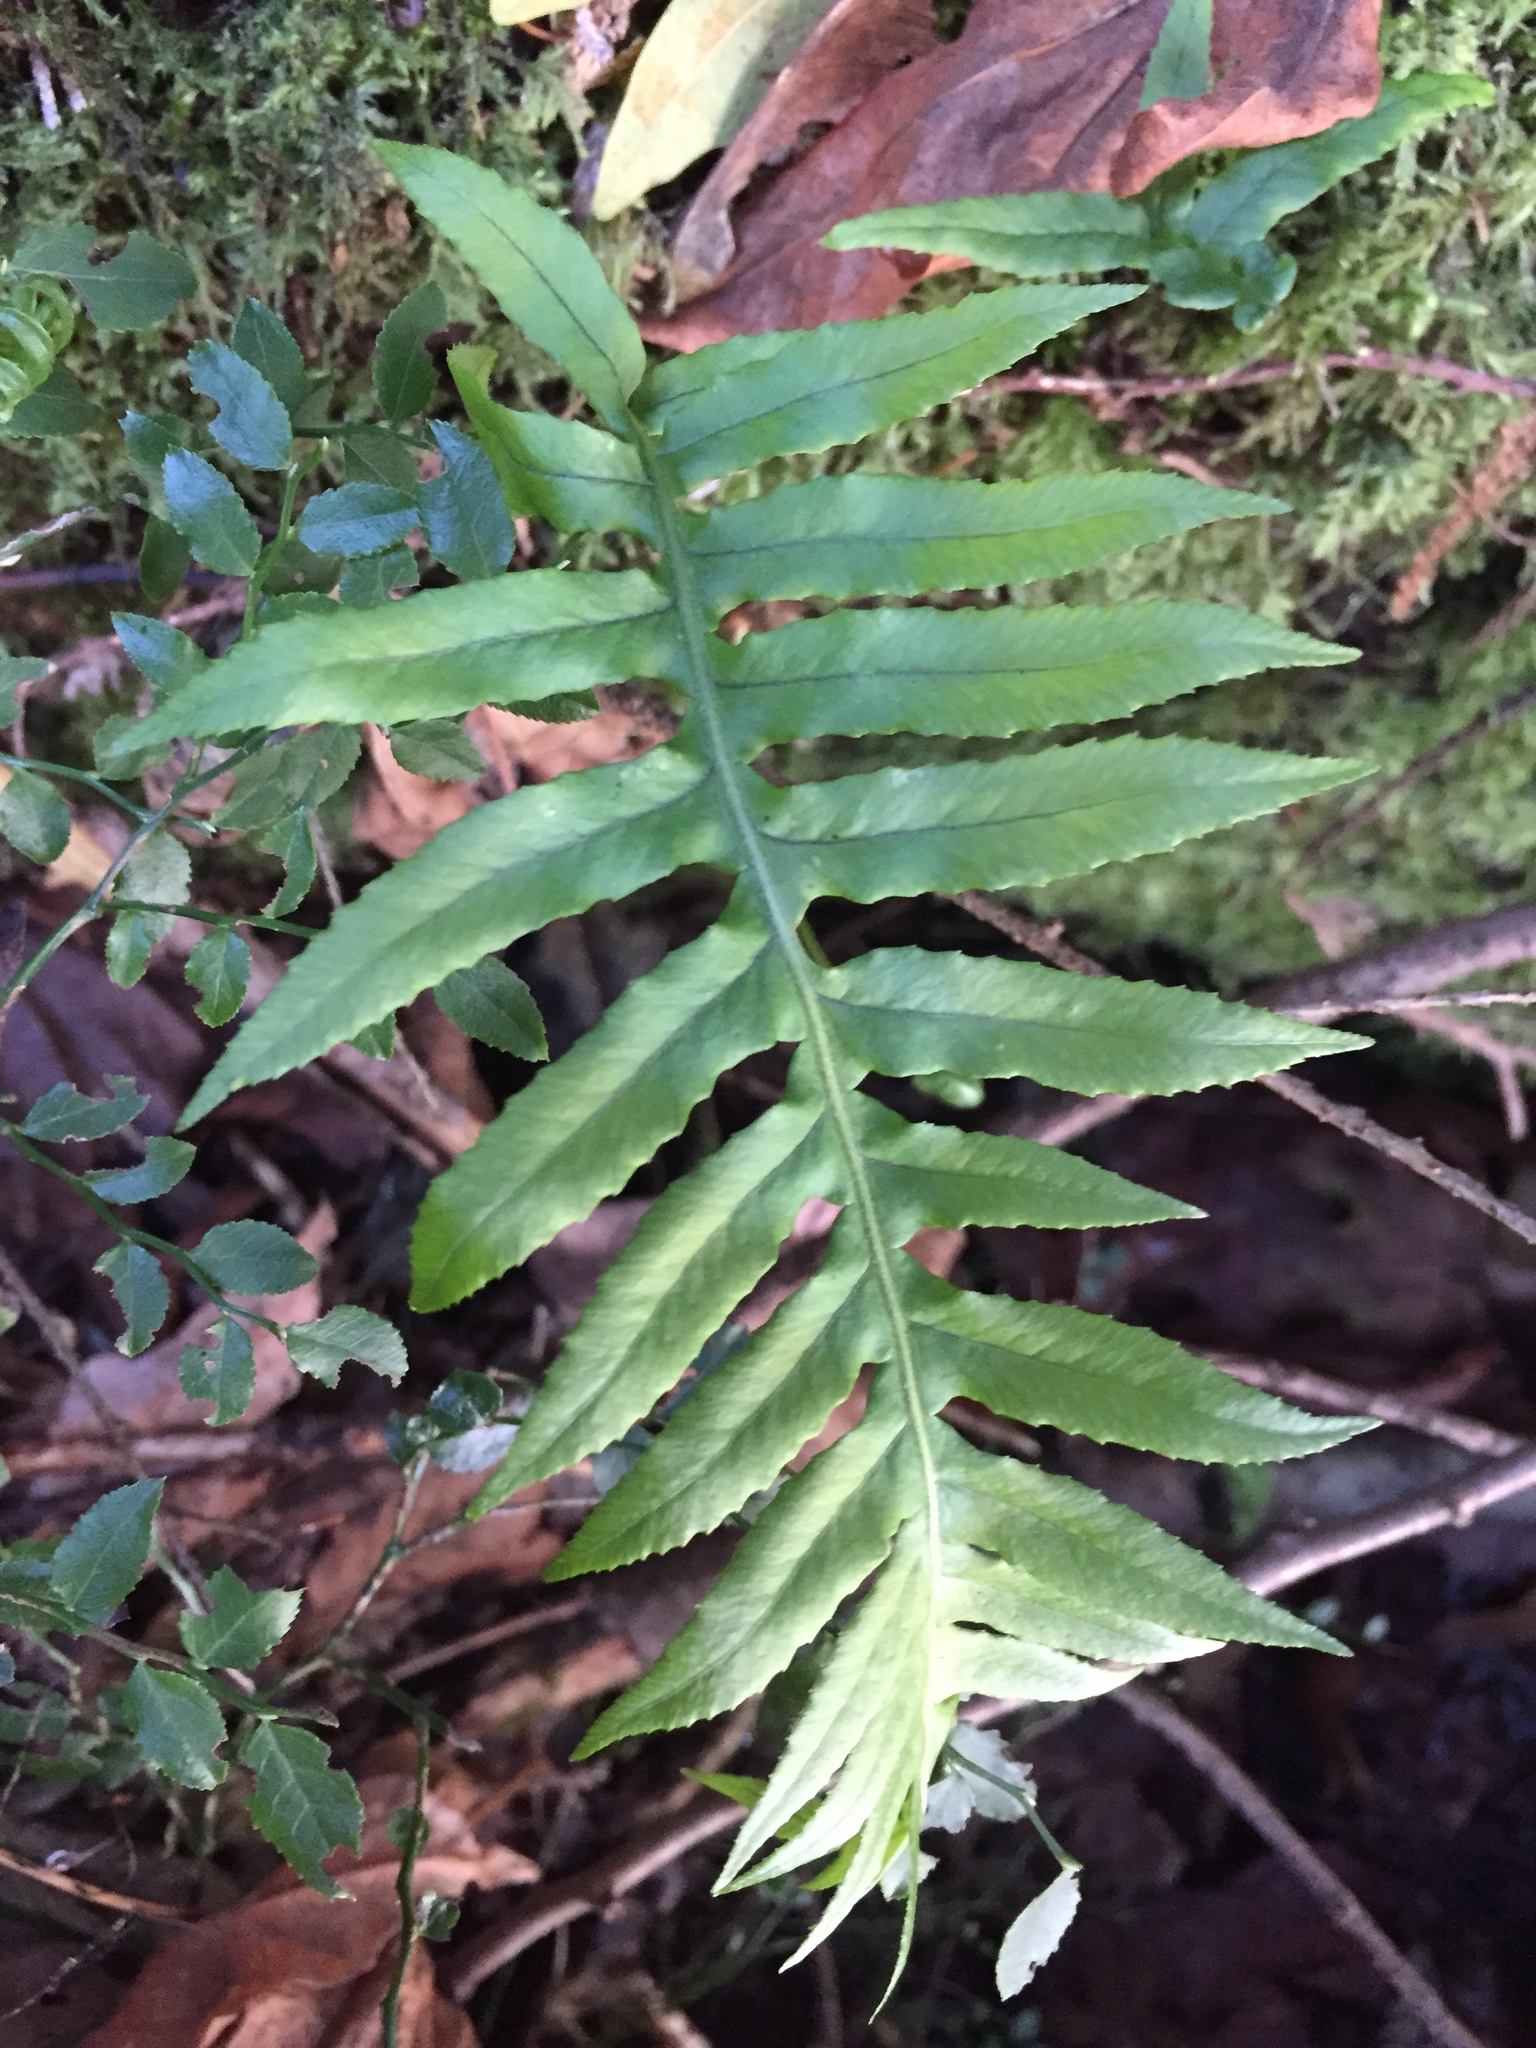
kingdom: Plantae
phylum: Tracheophyta
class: Polypodiopsida
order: Polypodiales
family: Polypodiaceae
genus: Polypodium
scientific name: Polypodium glycyrrhiza
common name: Licorice fern
